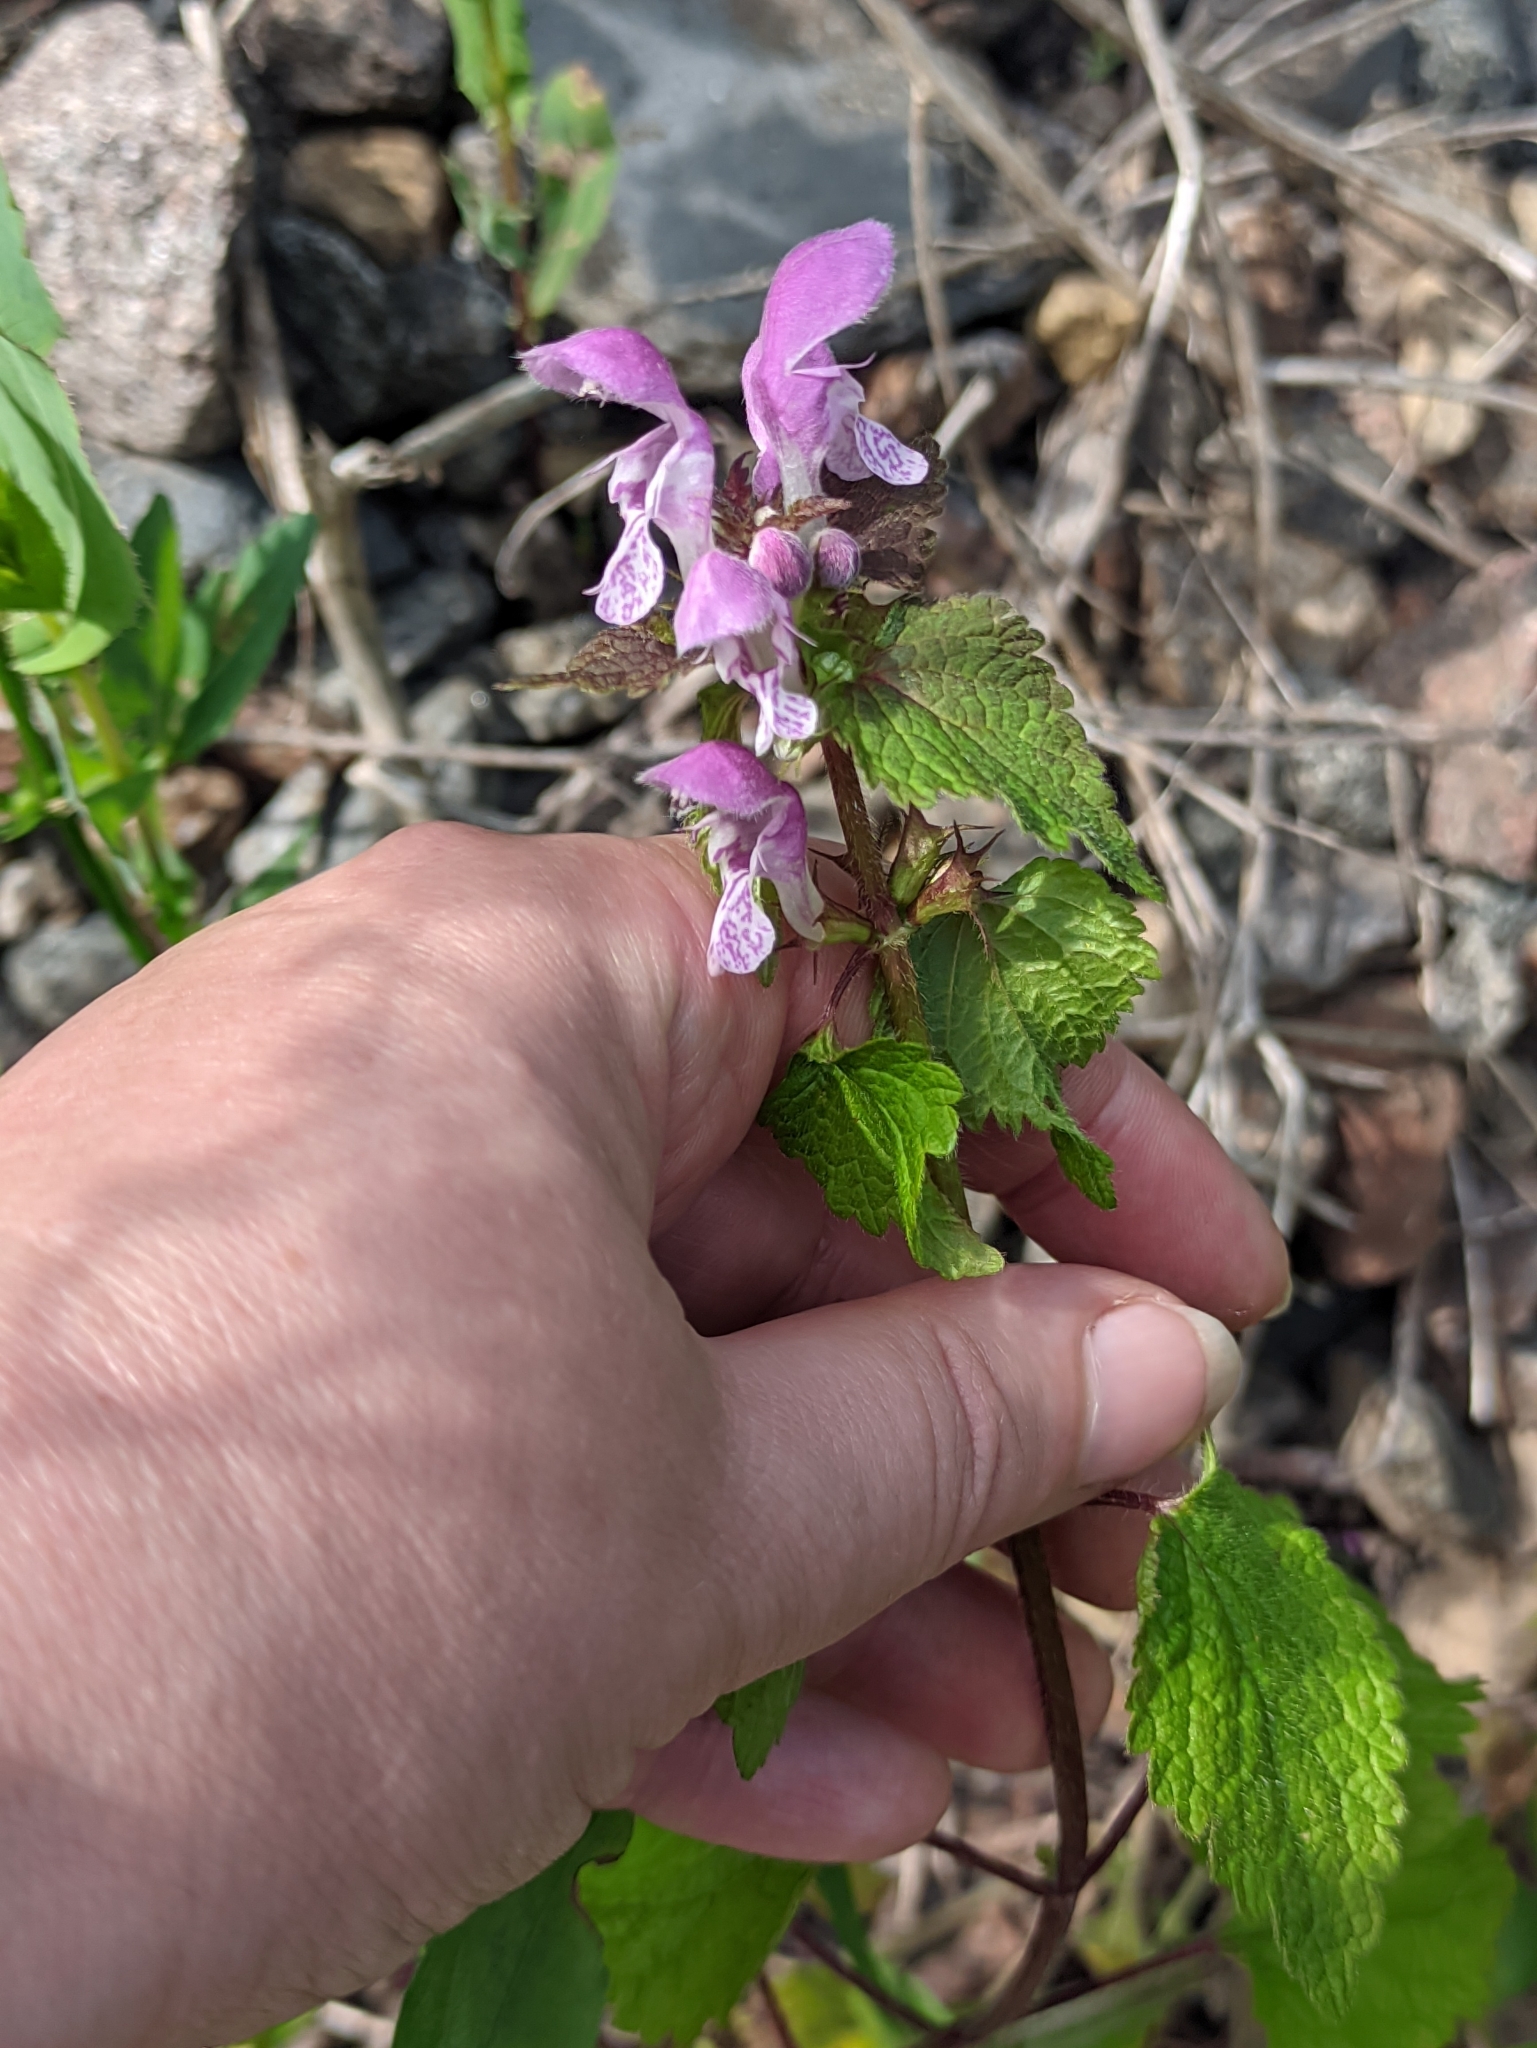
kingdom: Plantae
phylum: Tracheophyta
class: Magnoliopsida
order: Lamiales
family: Lamiaceae
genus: Lamium
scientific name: Lamium maculatum
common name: Spotted dead-nettle
